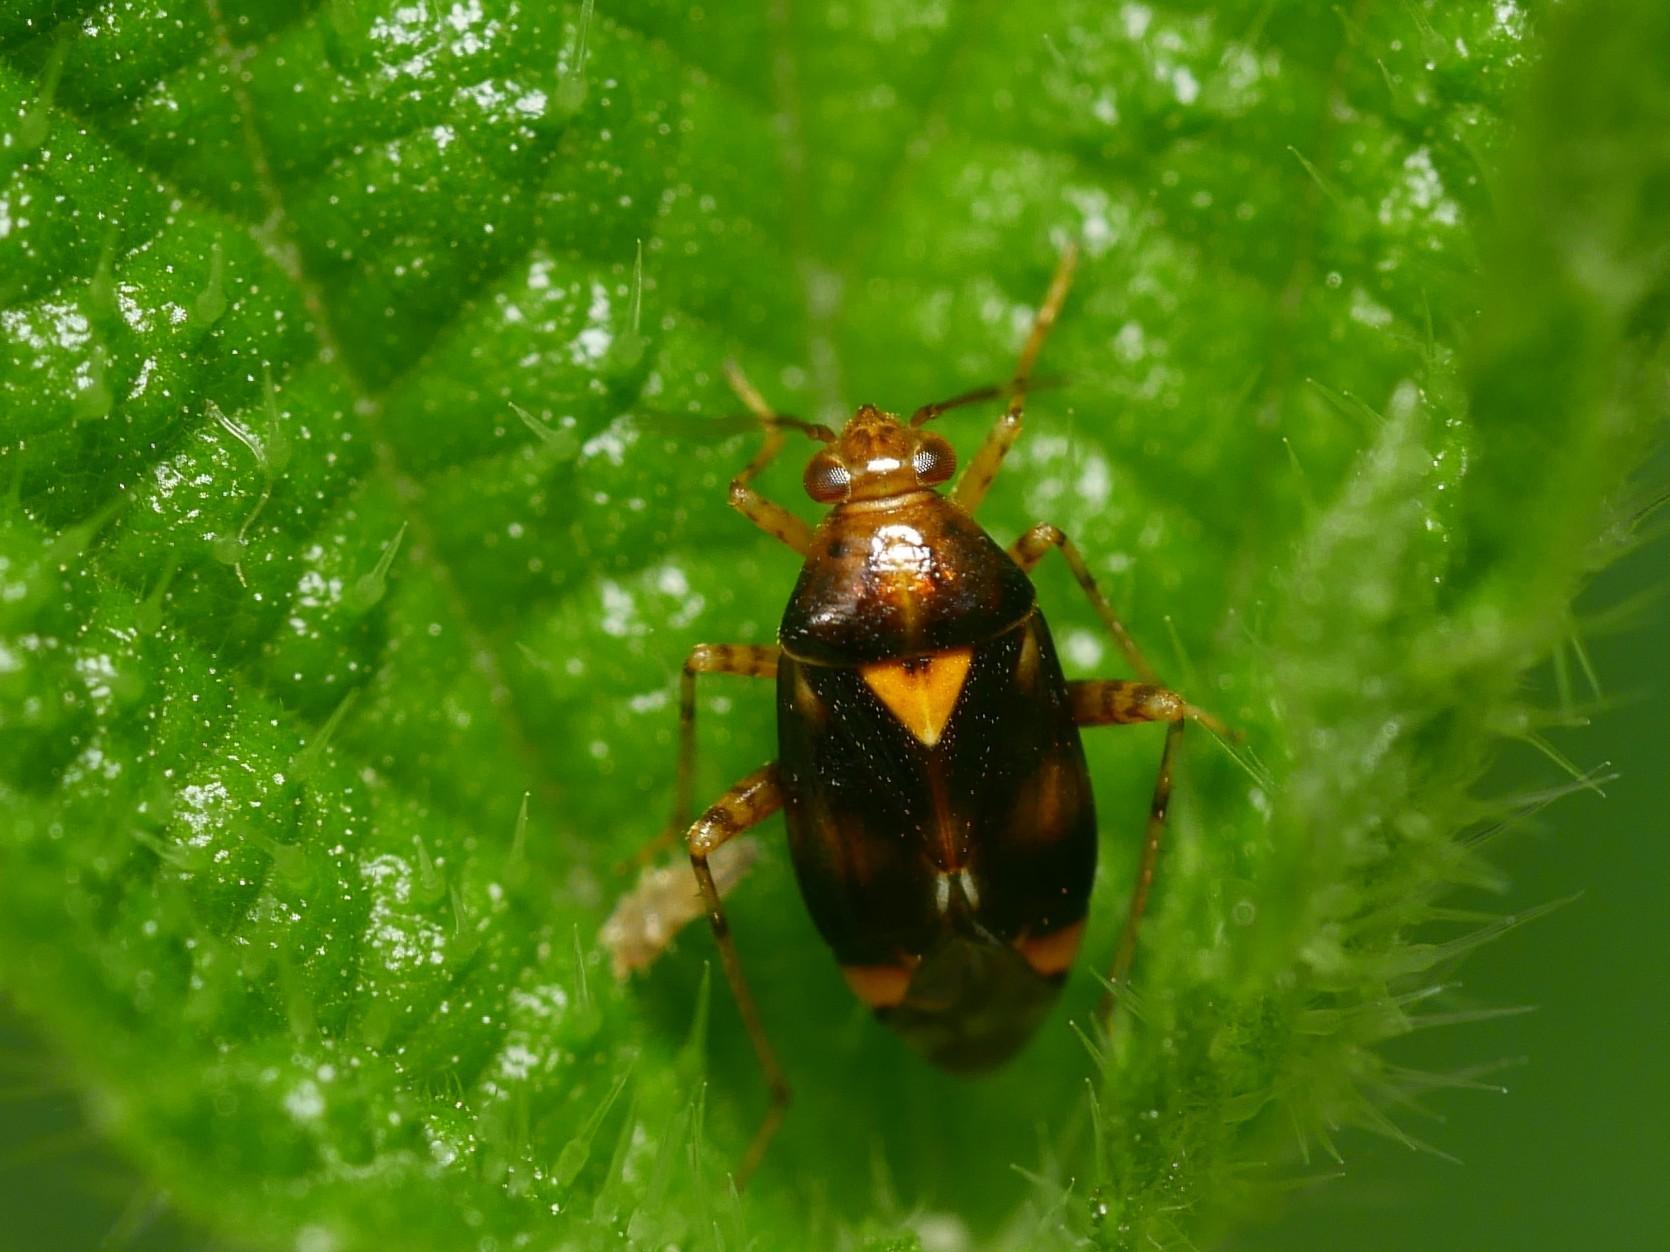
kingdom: Animalia
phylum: Arthropoda
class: Insecta
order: Hemiptera
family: Miridae
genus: Liocoris
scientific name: Liocoris tripustulatus
